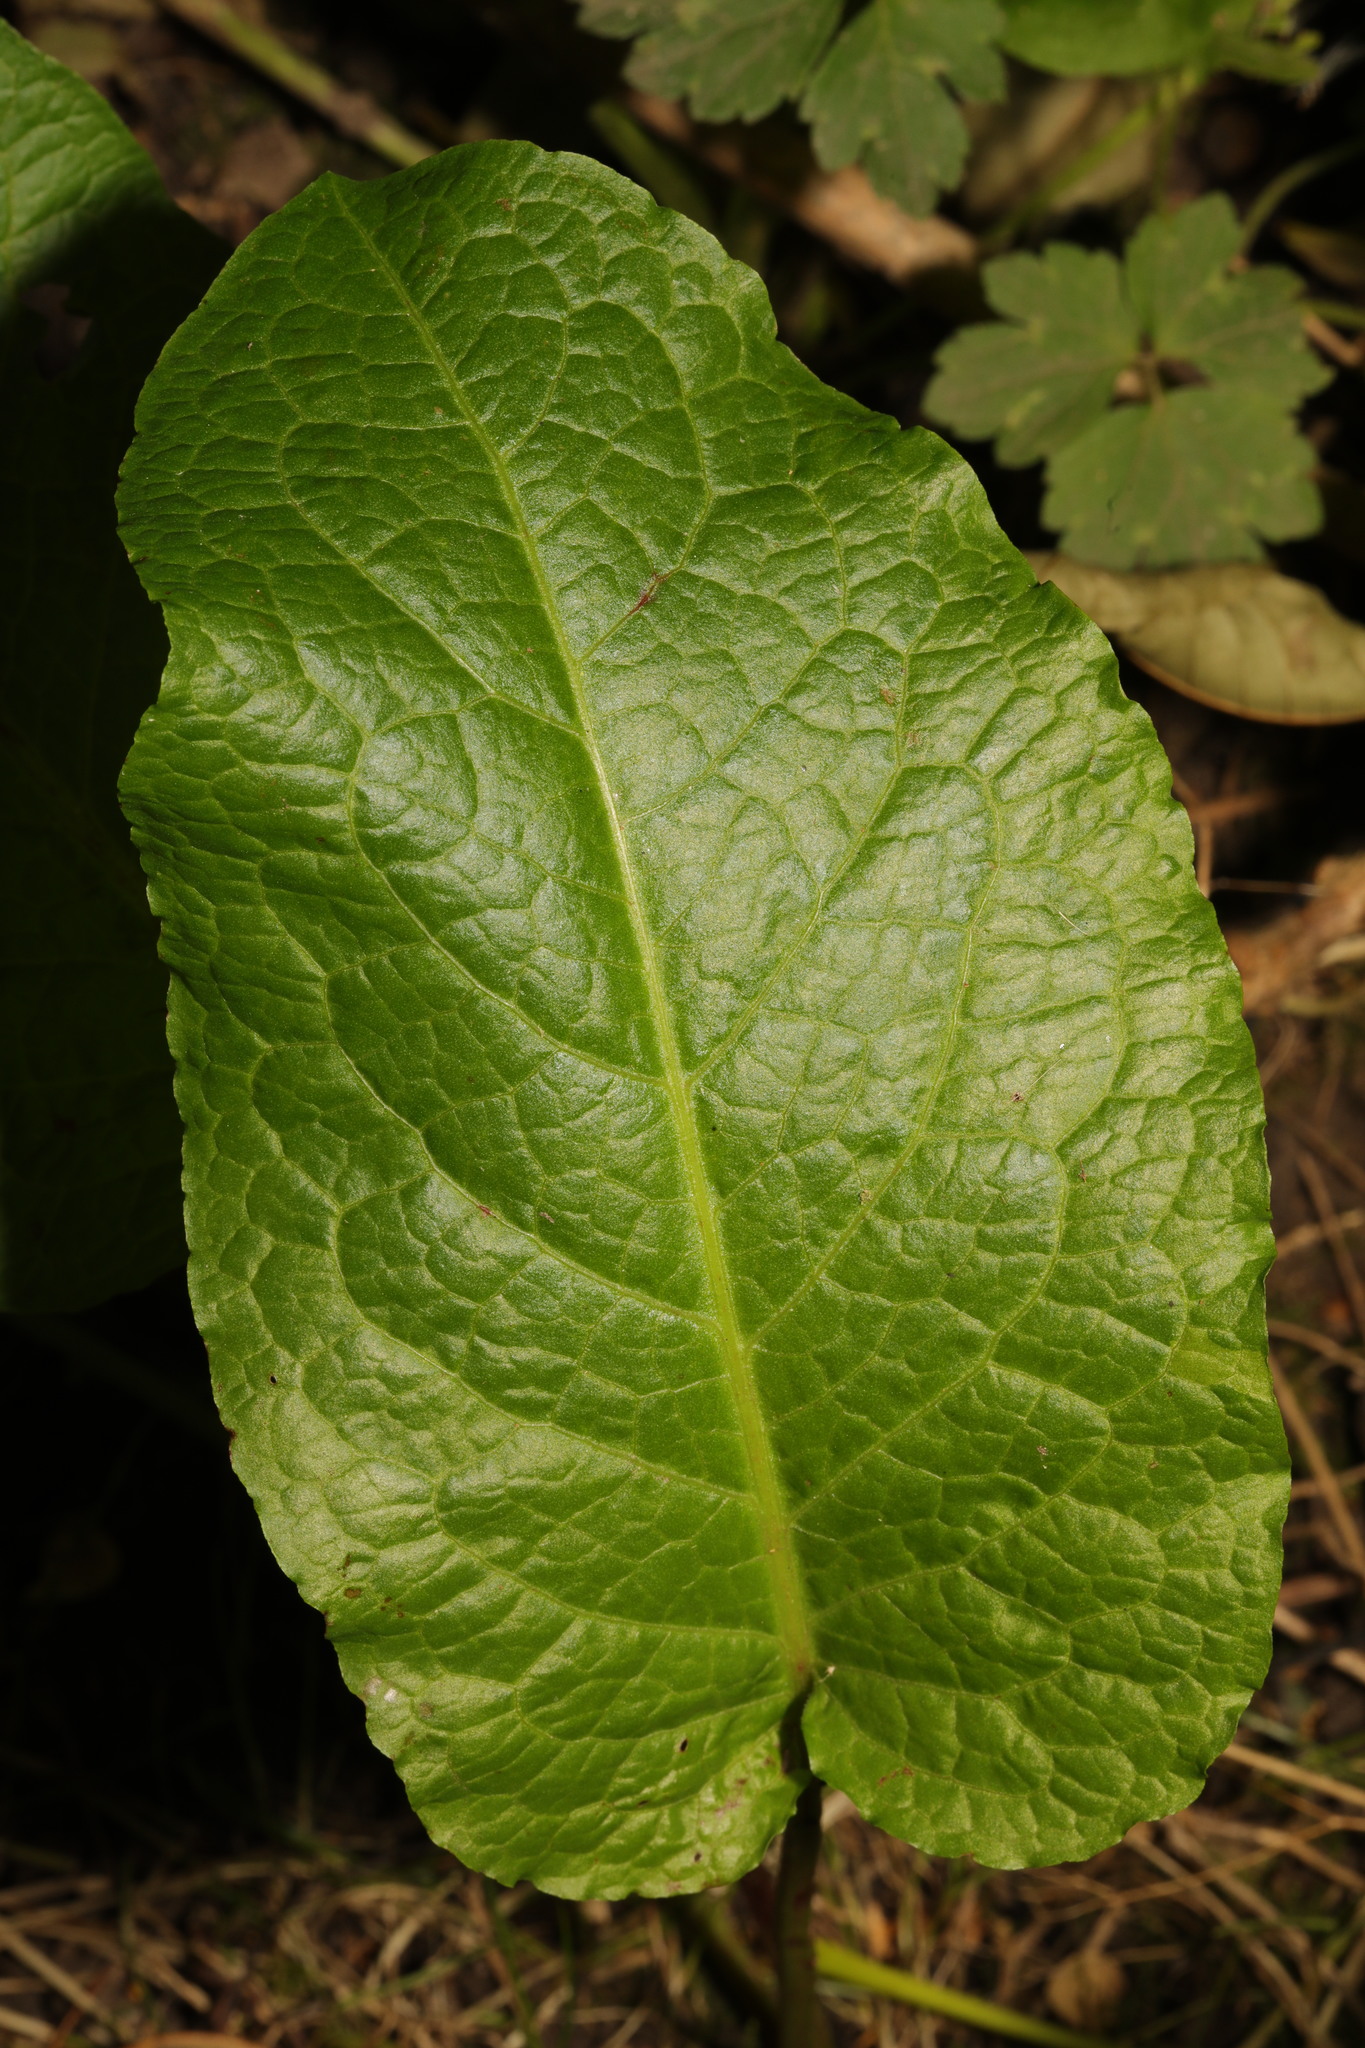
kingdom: Plantae
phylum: Tracheophyta
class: Magnoliopsida
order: Caryophyllales
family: Polygonaceae
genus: Rumex
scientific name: Rumex obtusifolius
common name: Bitter dock
